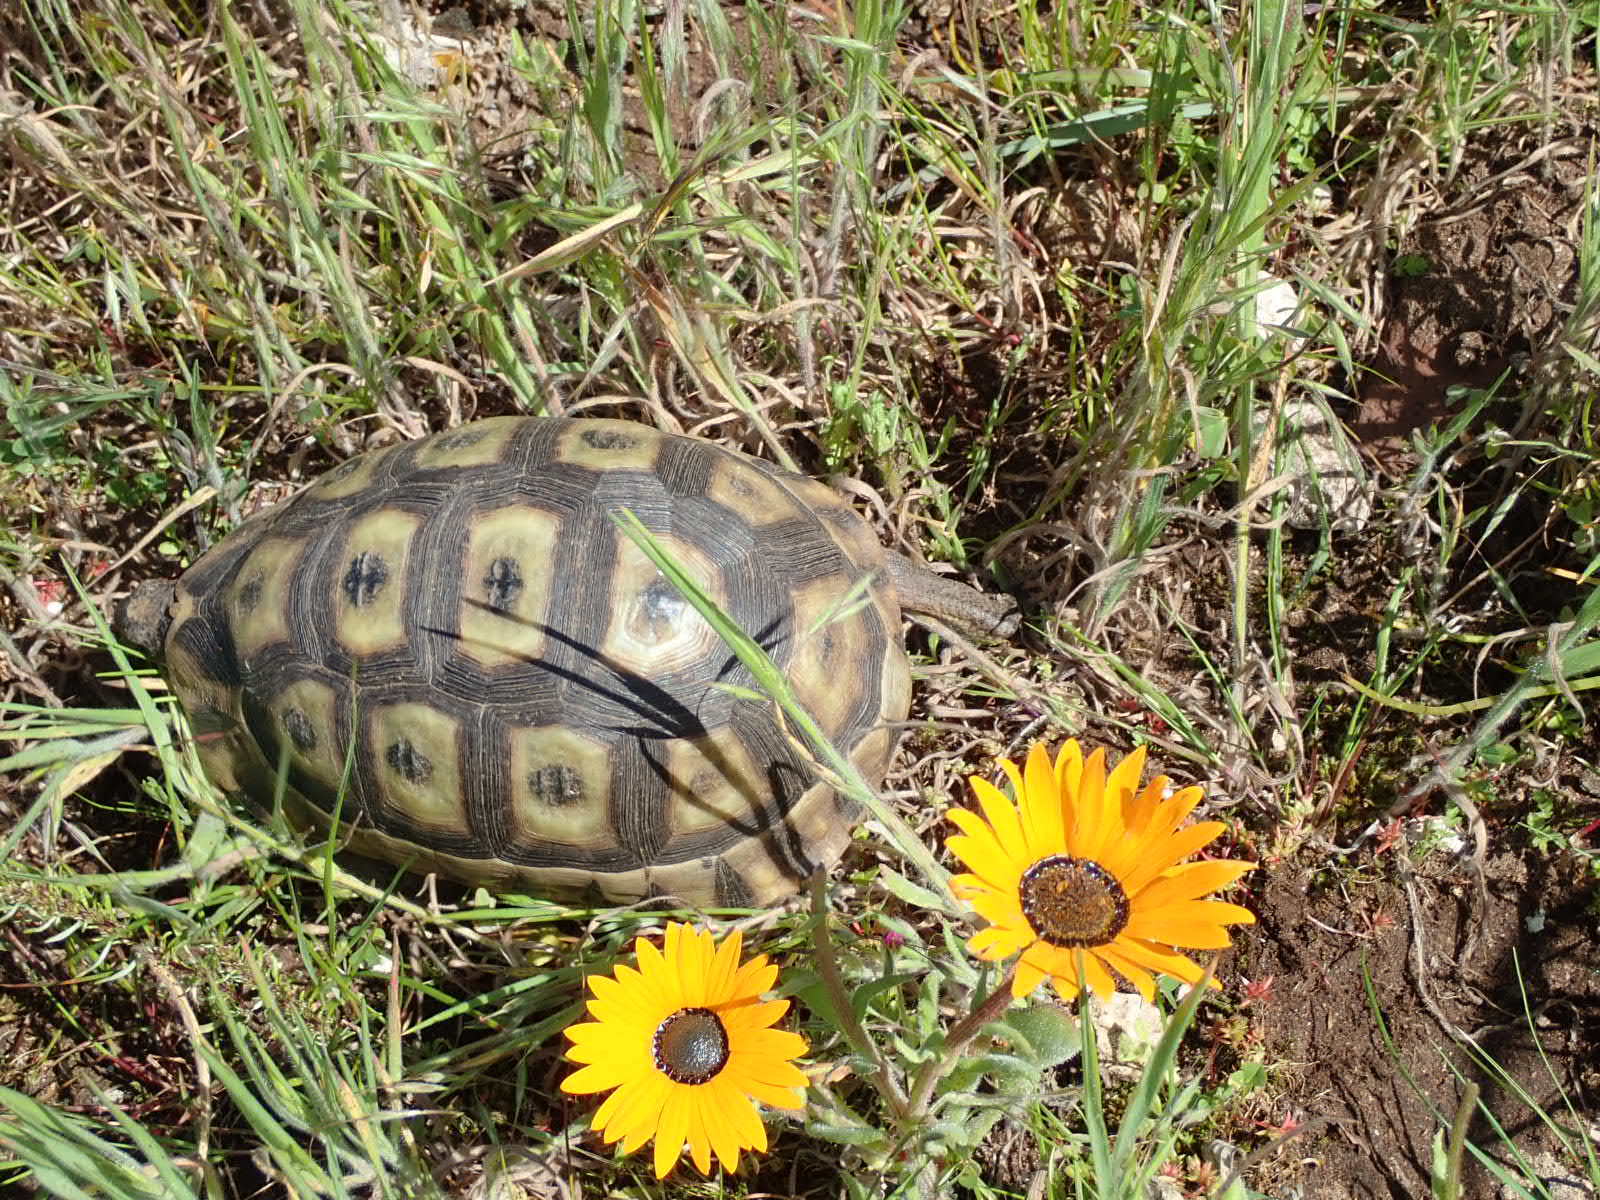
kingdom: Animalia
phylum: Chordata
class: Testudines
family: Testudinidae
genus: Chersina
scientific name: Chersina angulata
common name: South african bowsprit tortoise
